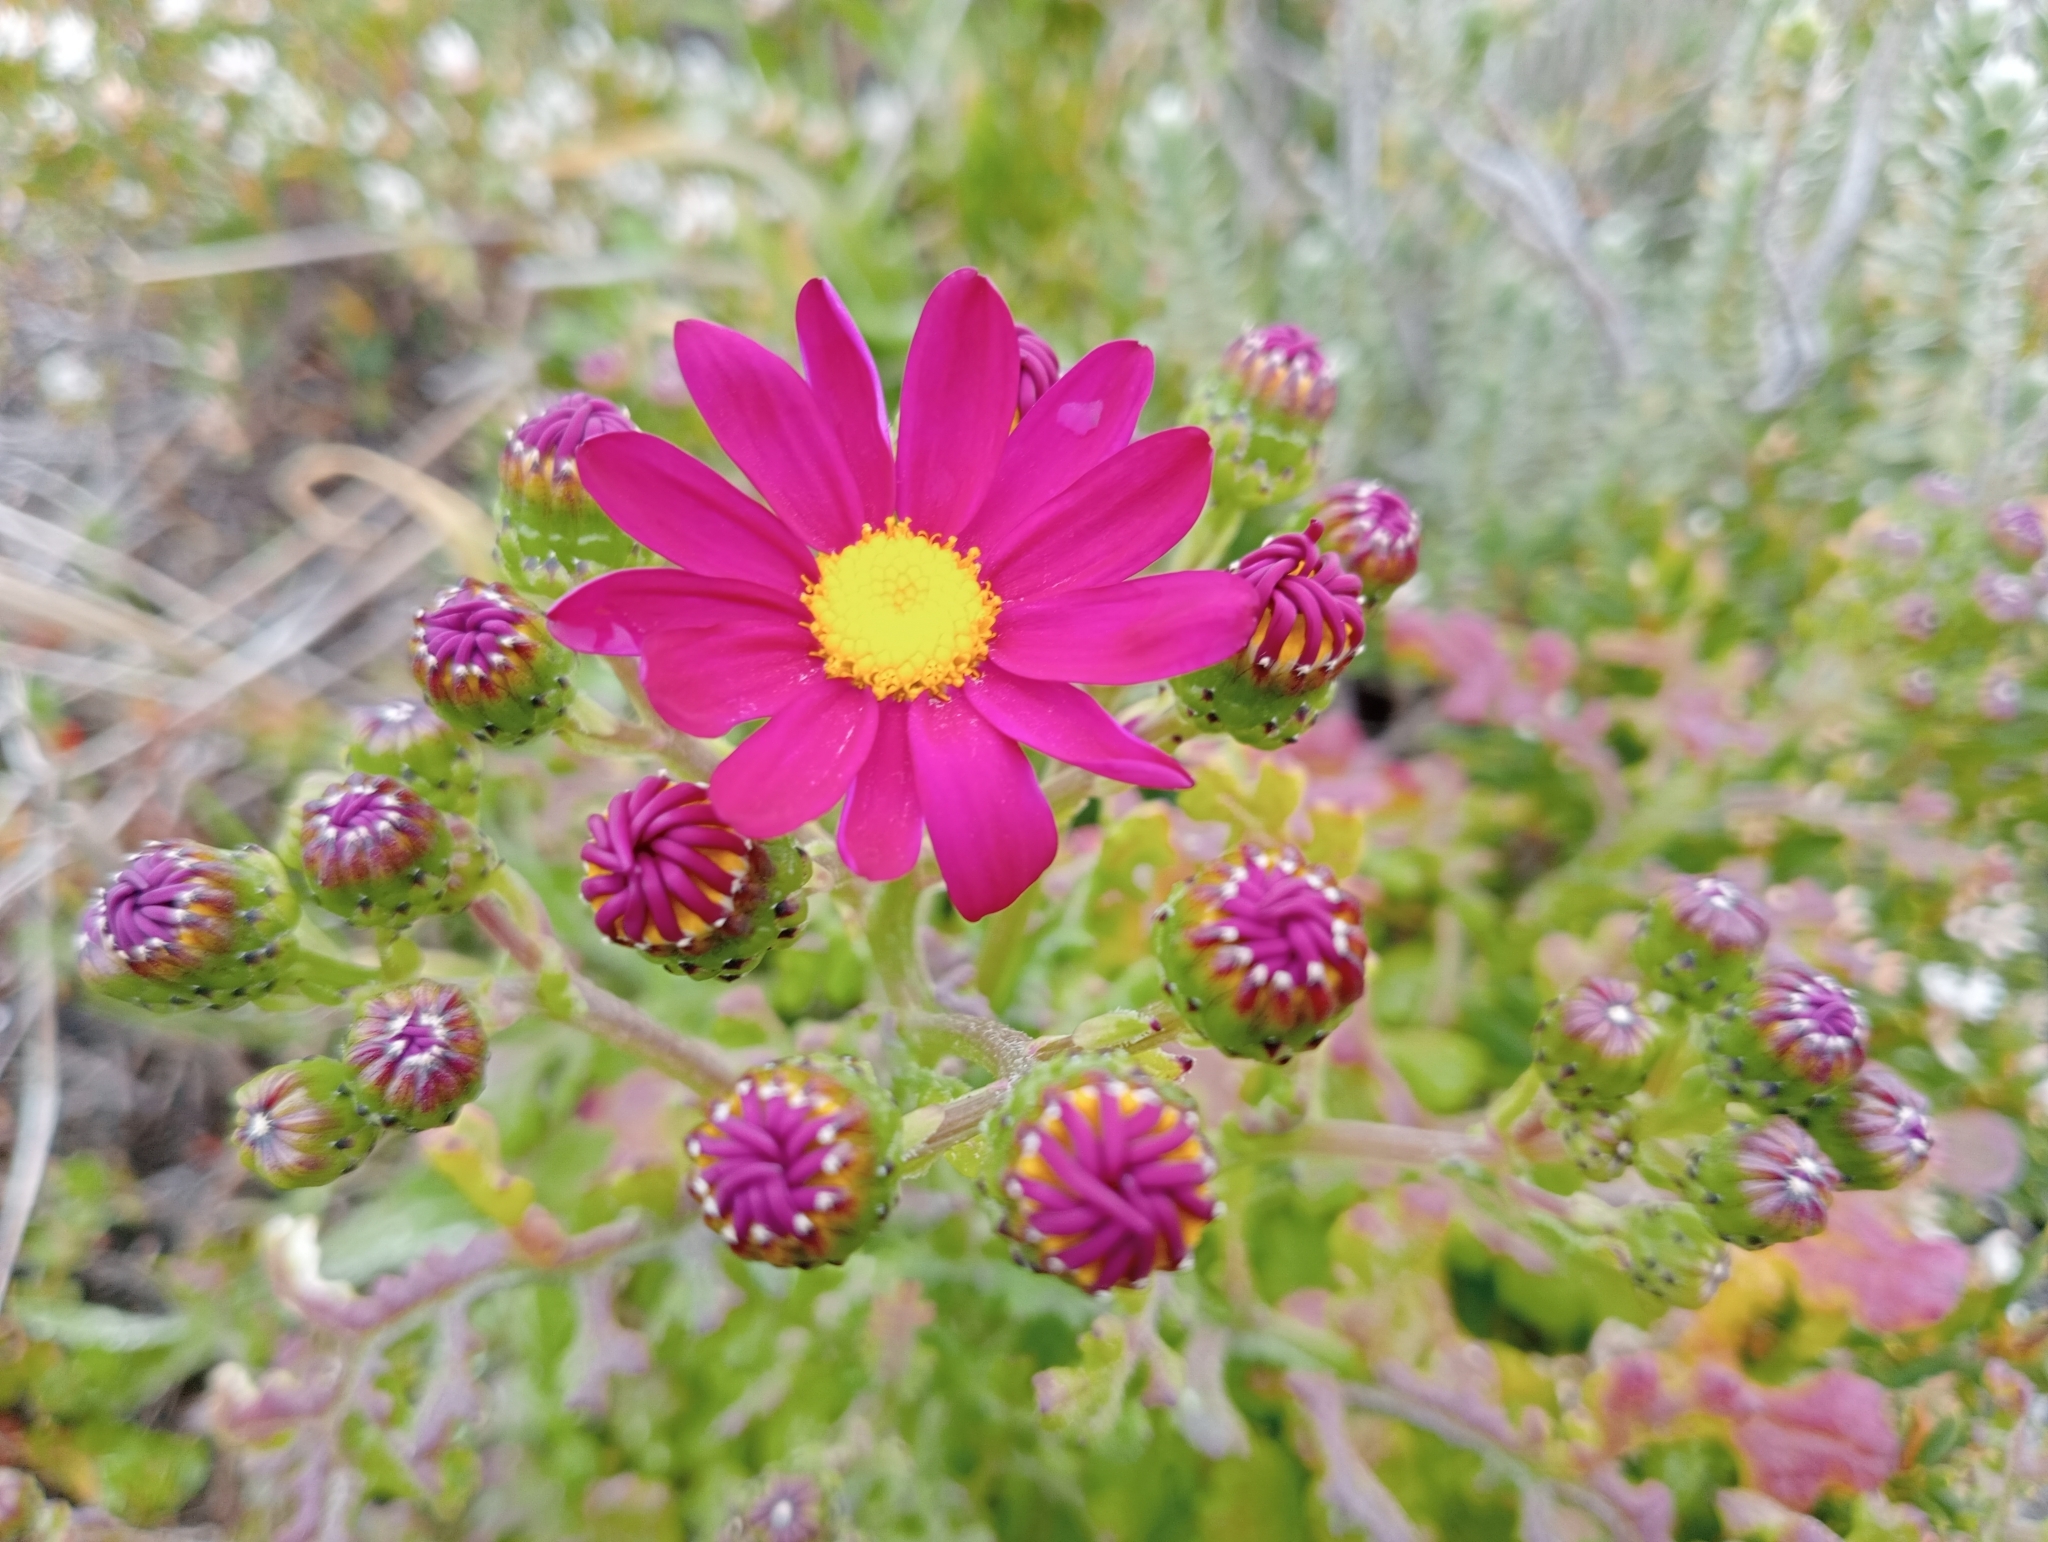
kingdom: Plantae
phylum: Tracheophyta
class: Magnoliopsida
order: Asterales
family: Asteraceae
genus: Senecio
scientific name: Senecio elegans
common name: Purple groundsel
